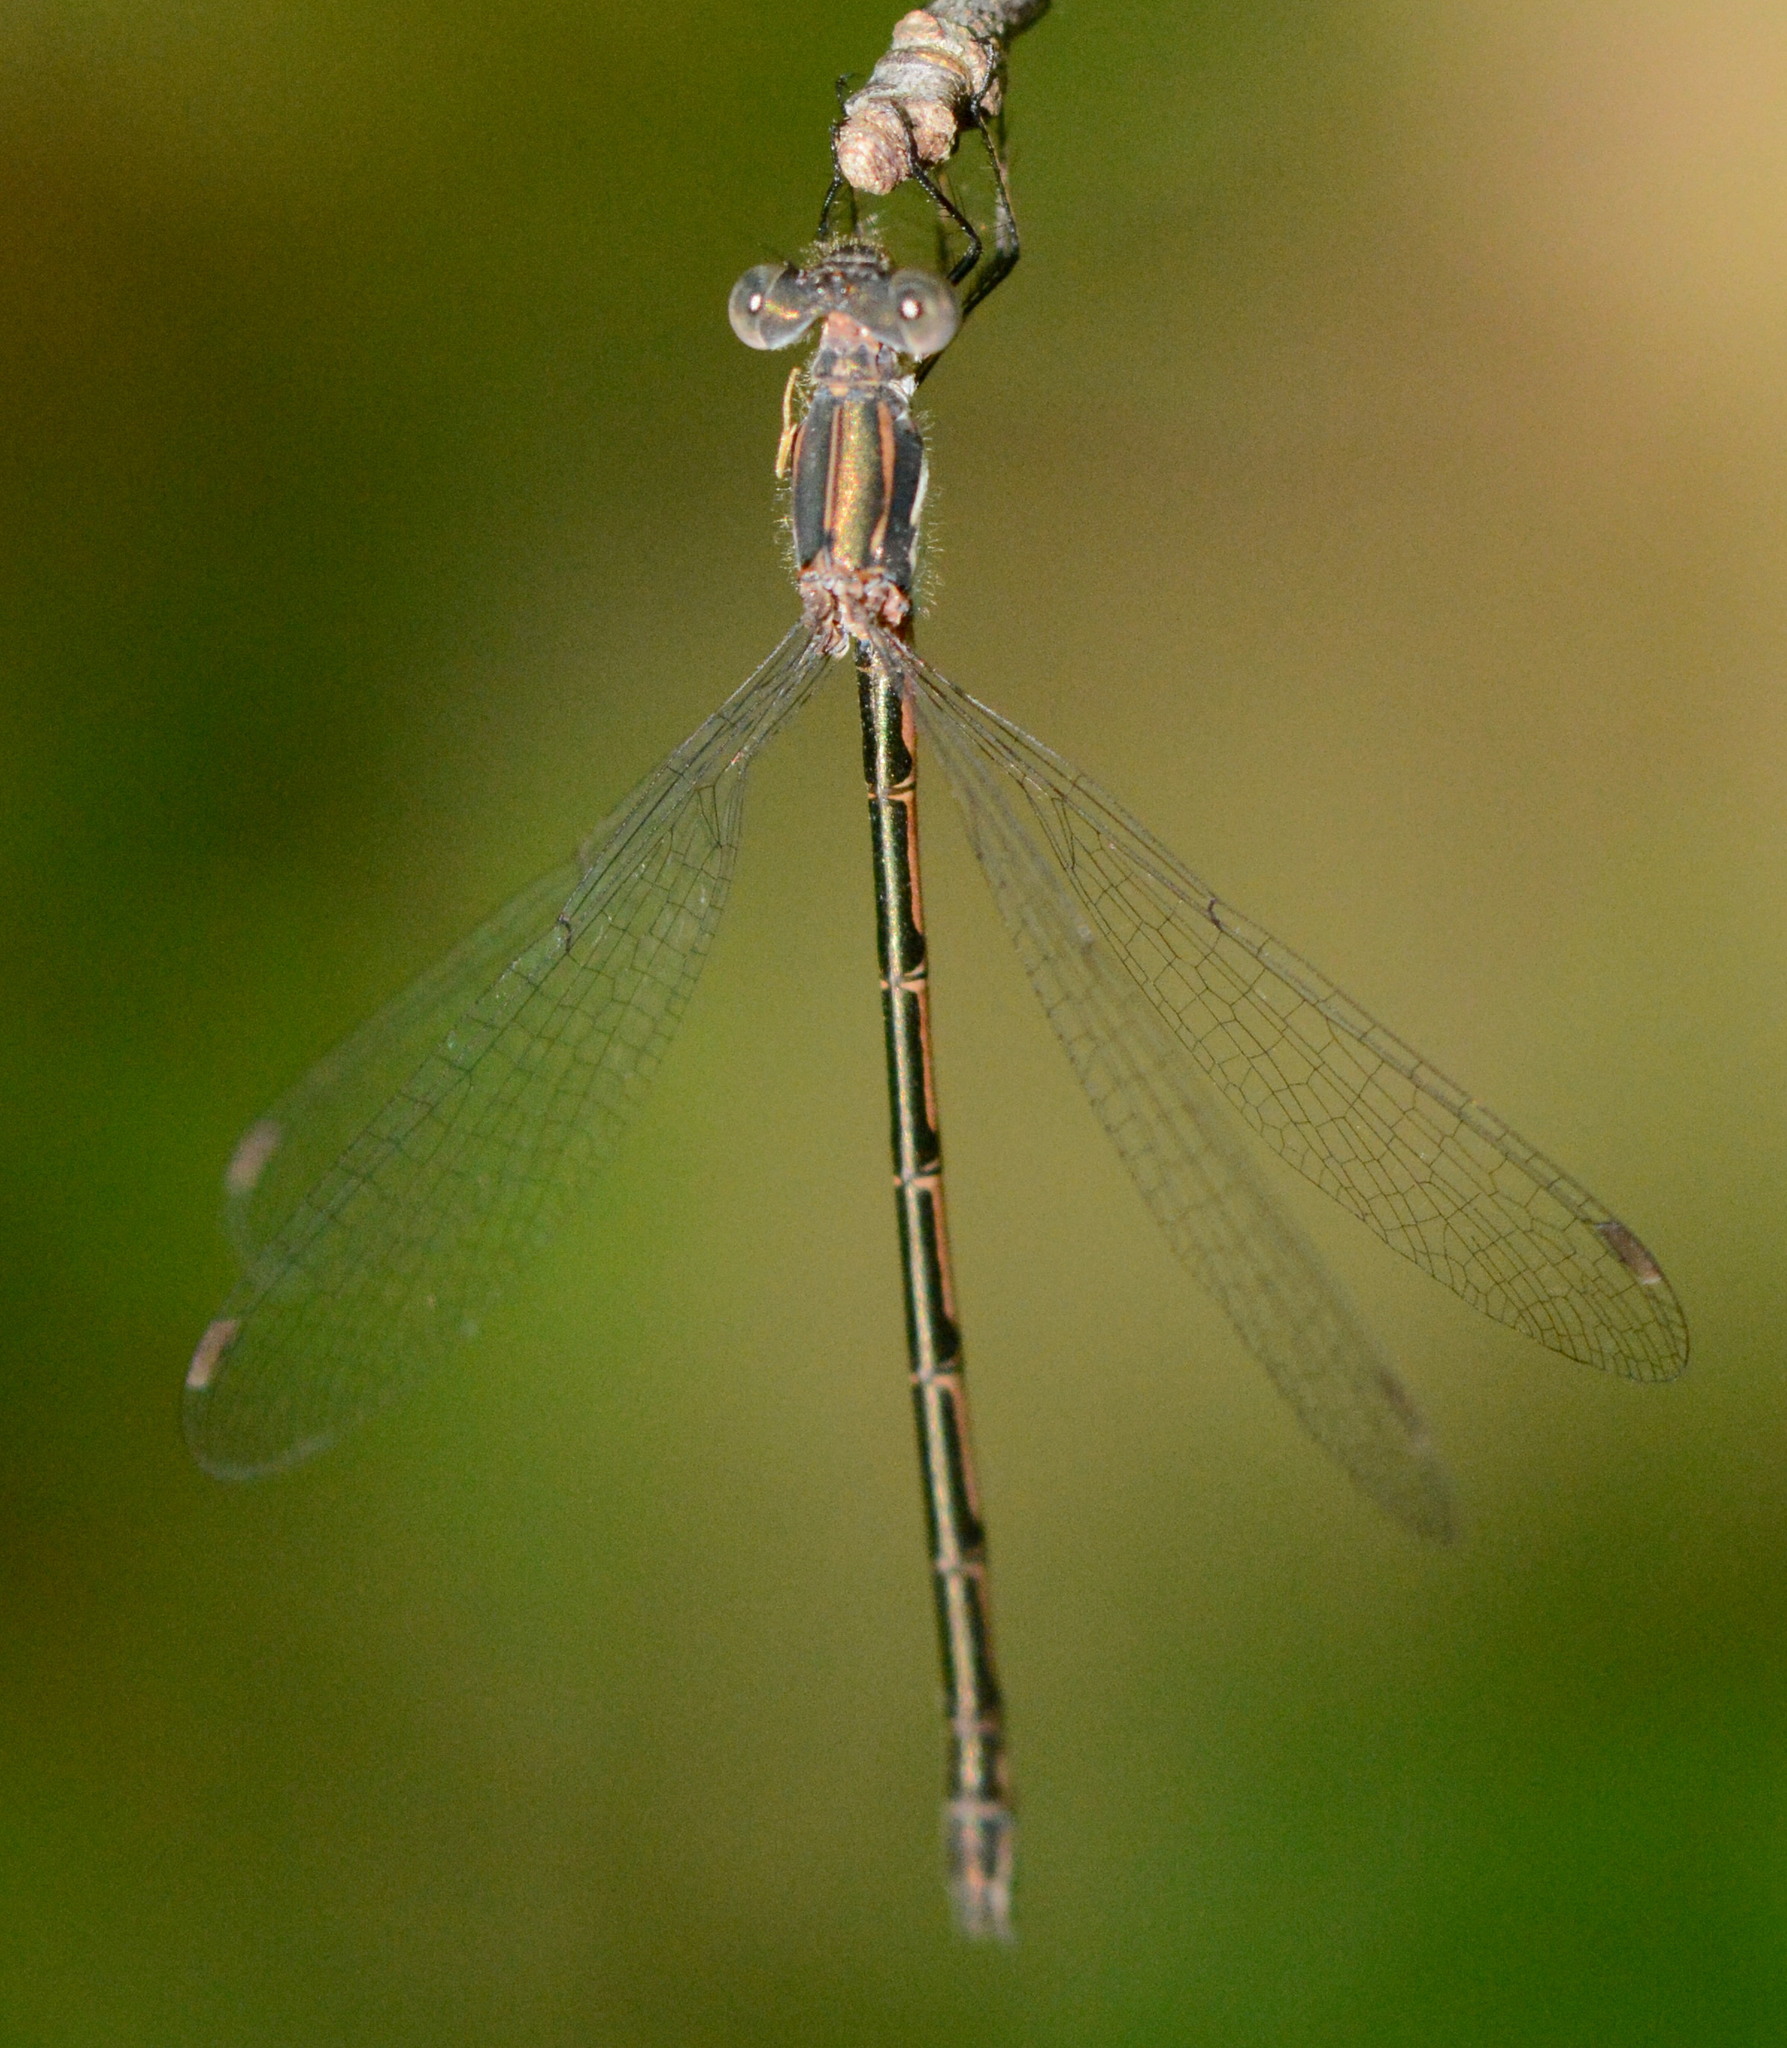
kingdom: Animalia
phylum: Arthropoda
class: Insecta
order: Odonata
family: Lestidae
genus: Lestes
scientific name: Lestes congener
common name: Spotted spreadwing
